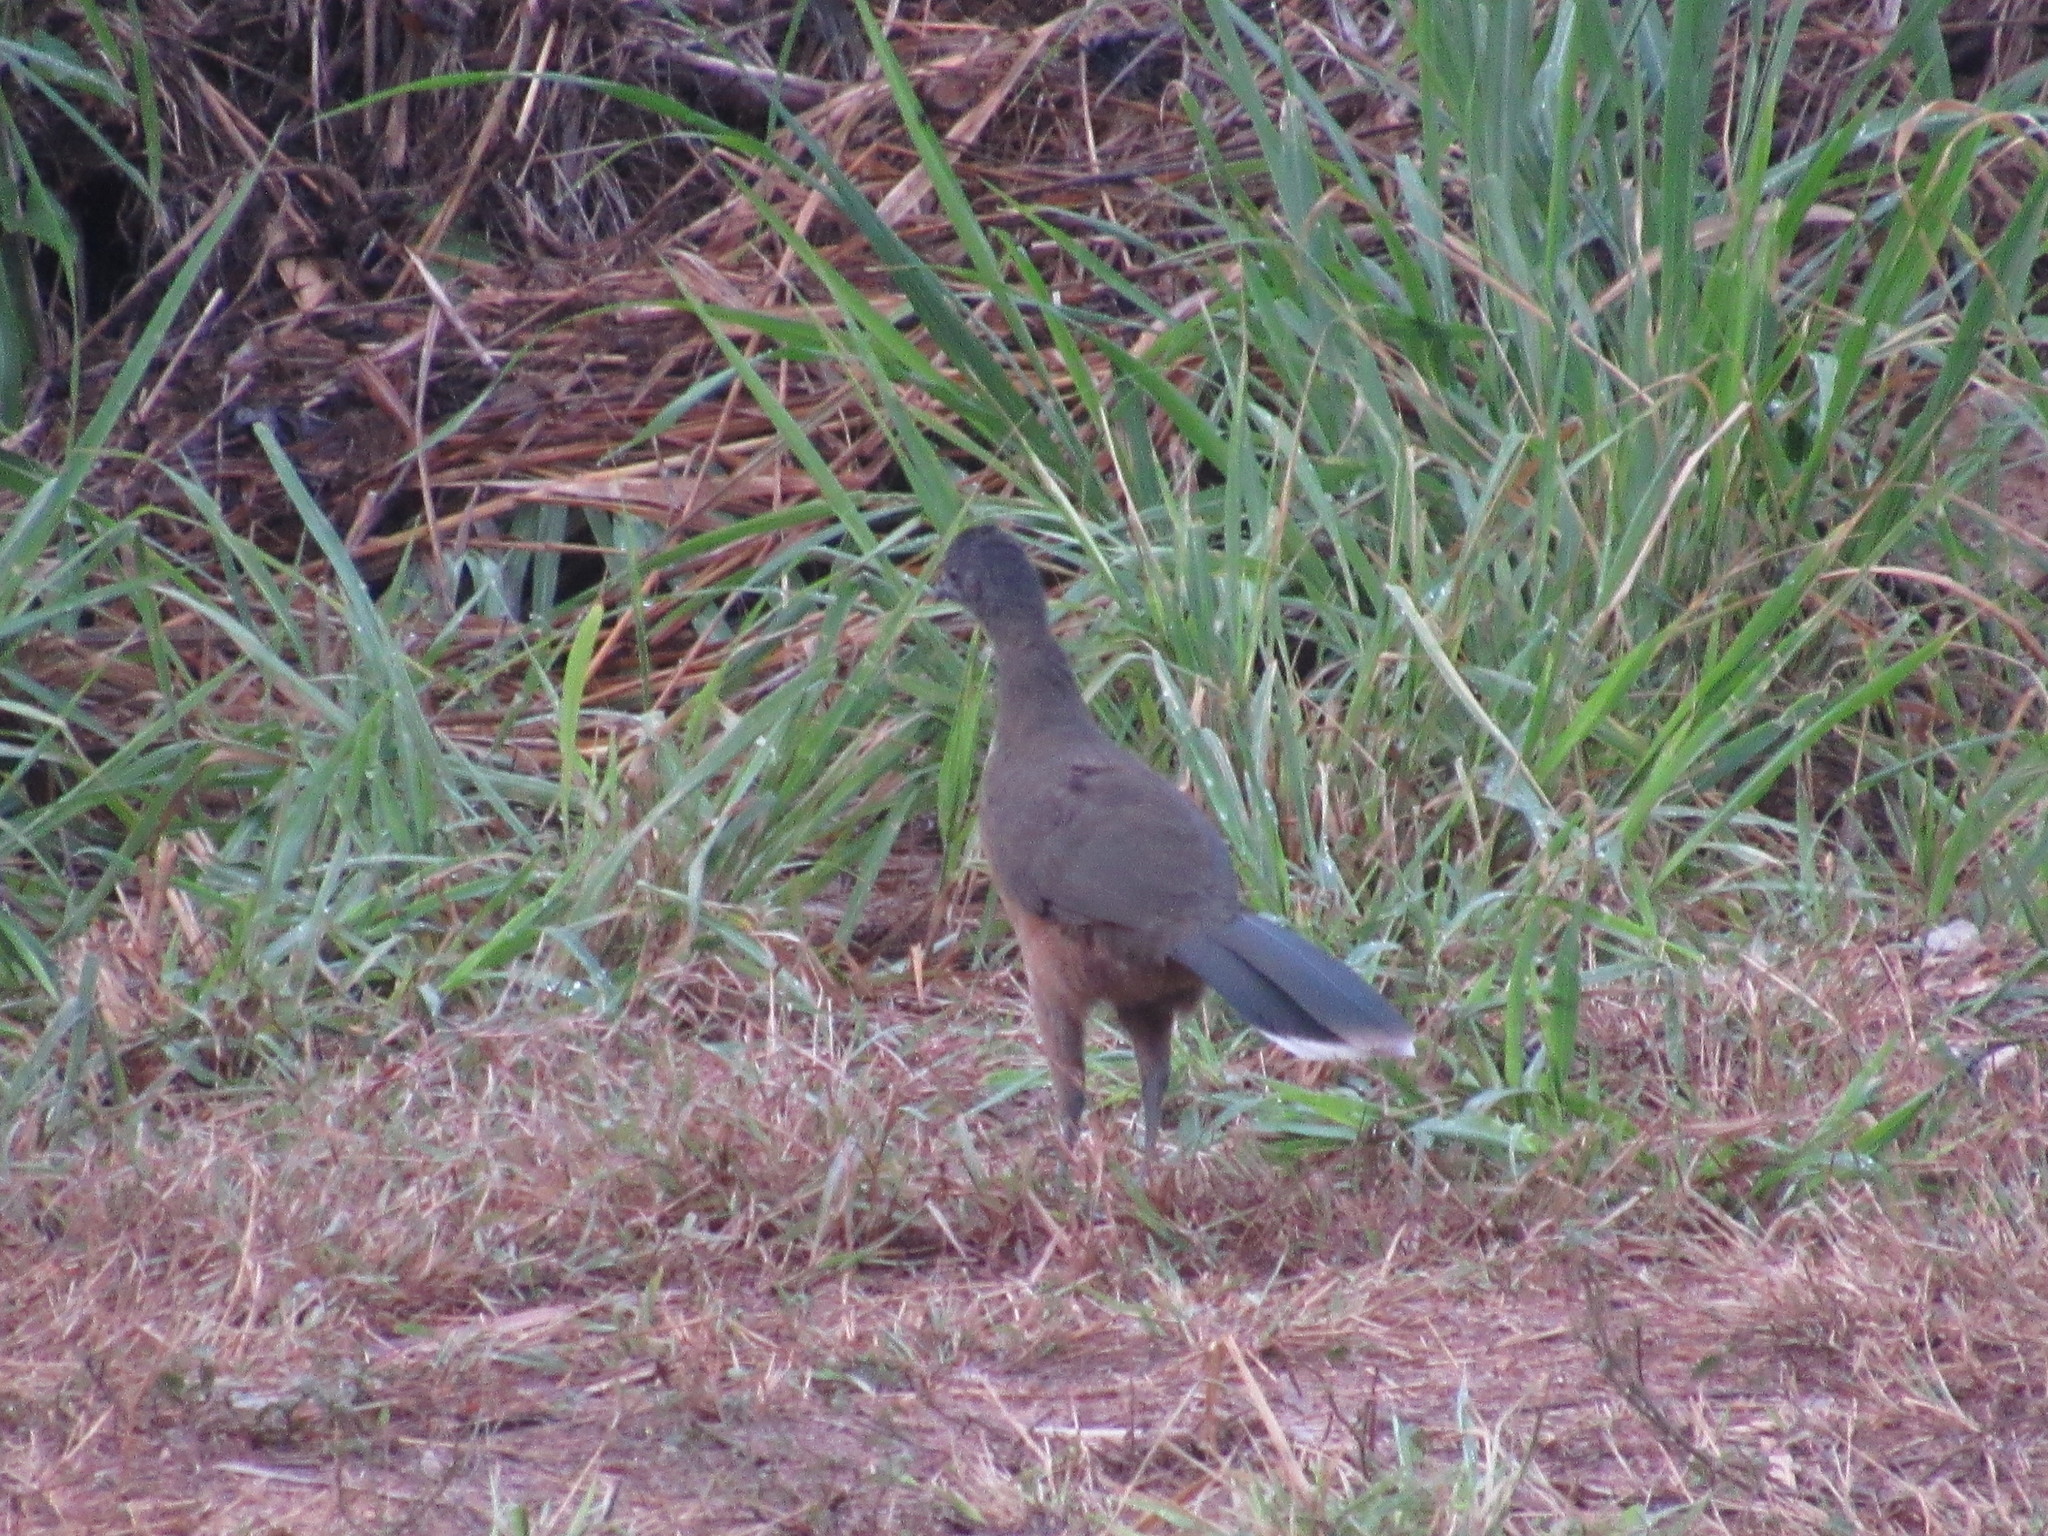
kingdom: Animalia
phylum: Chordata
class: Aves
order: Galliformes
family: Cracidae
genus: Ortalis
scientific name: Ortalis vetula
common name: Plain chachalaca
